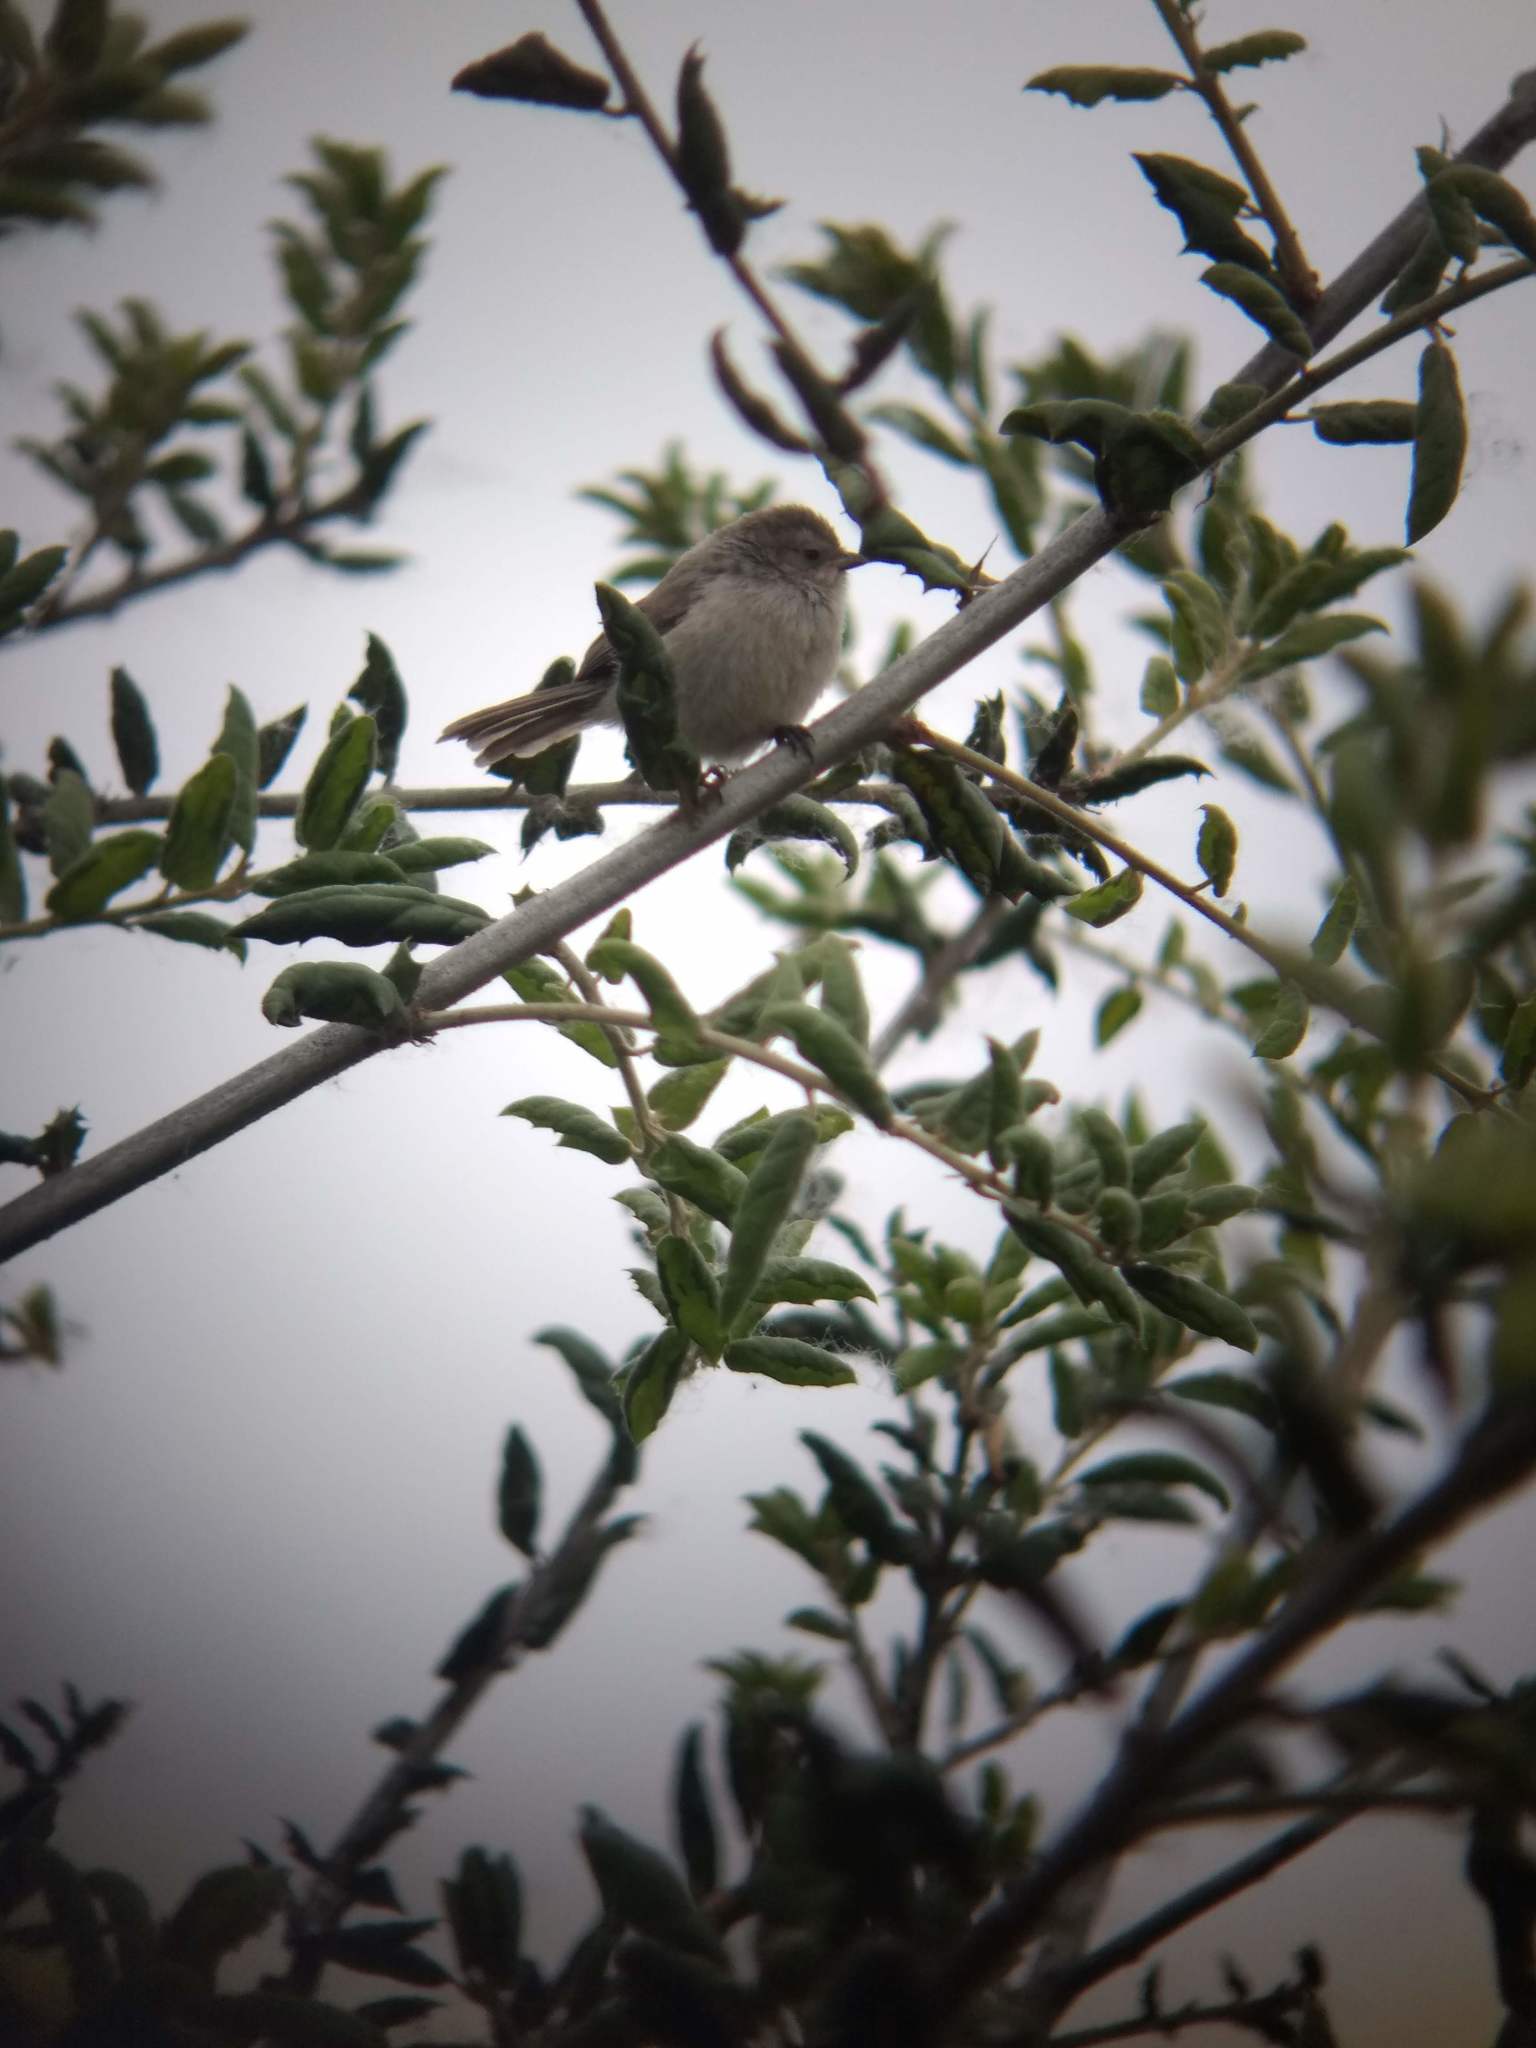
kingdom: Animalia
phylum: Chordata
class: Aves
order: Passeriformes
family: Aegithalidae
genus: Psaltriparus
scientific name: Psaltriparus minimus
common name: American bushtit
